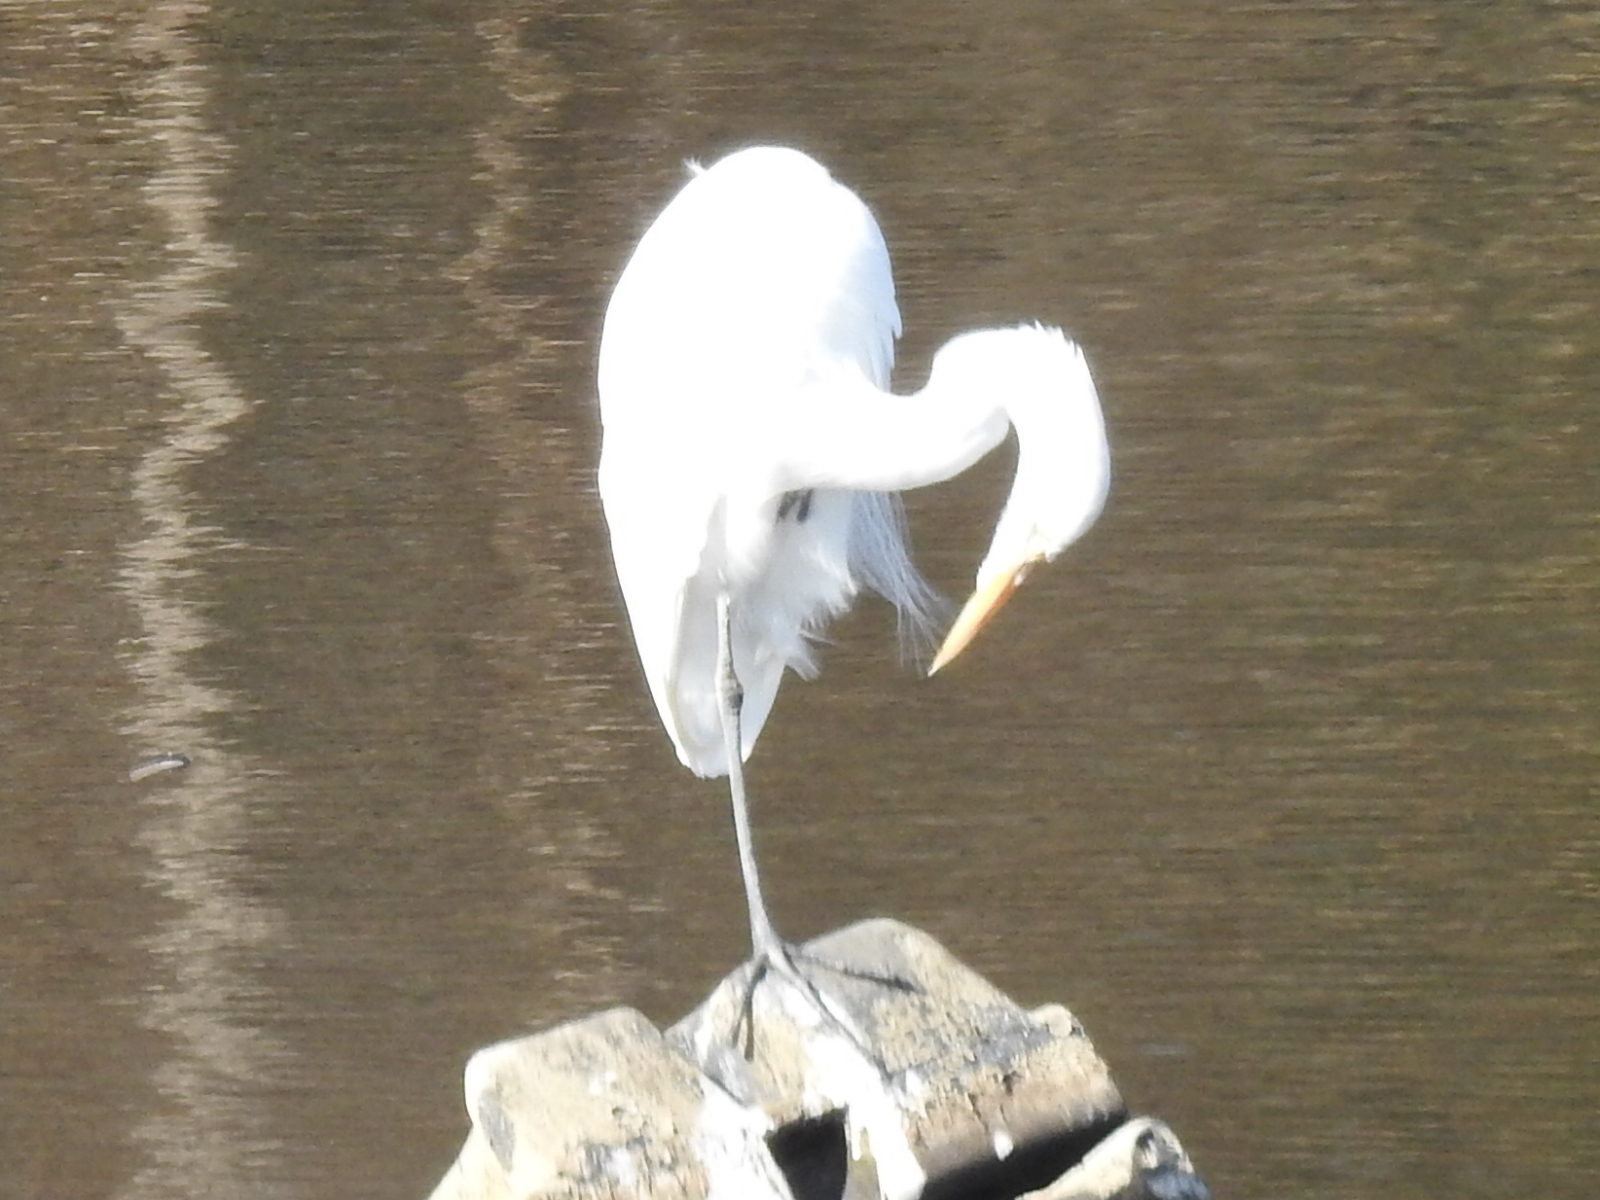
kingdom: Animalia
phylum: Chordata
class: Aves
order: Pelecaniformes
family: Ardeidae
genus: Ardea
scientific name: Ardea alba
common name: Great egret
